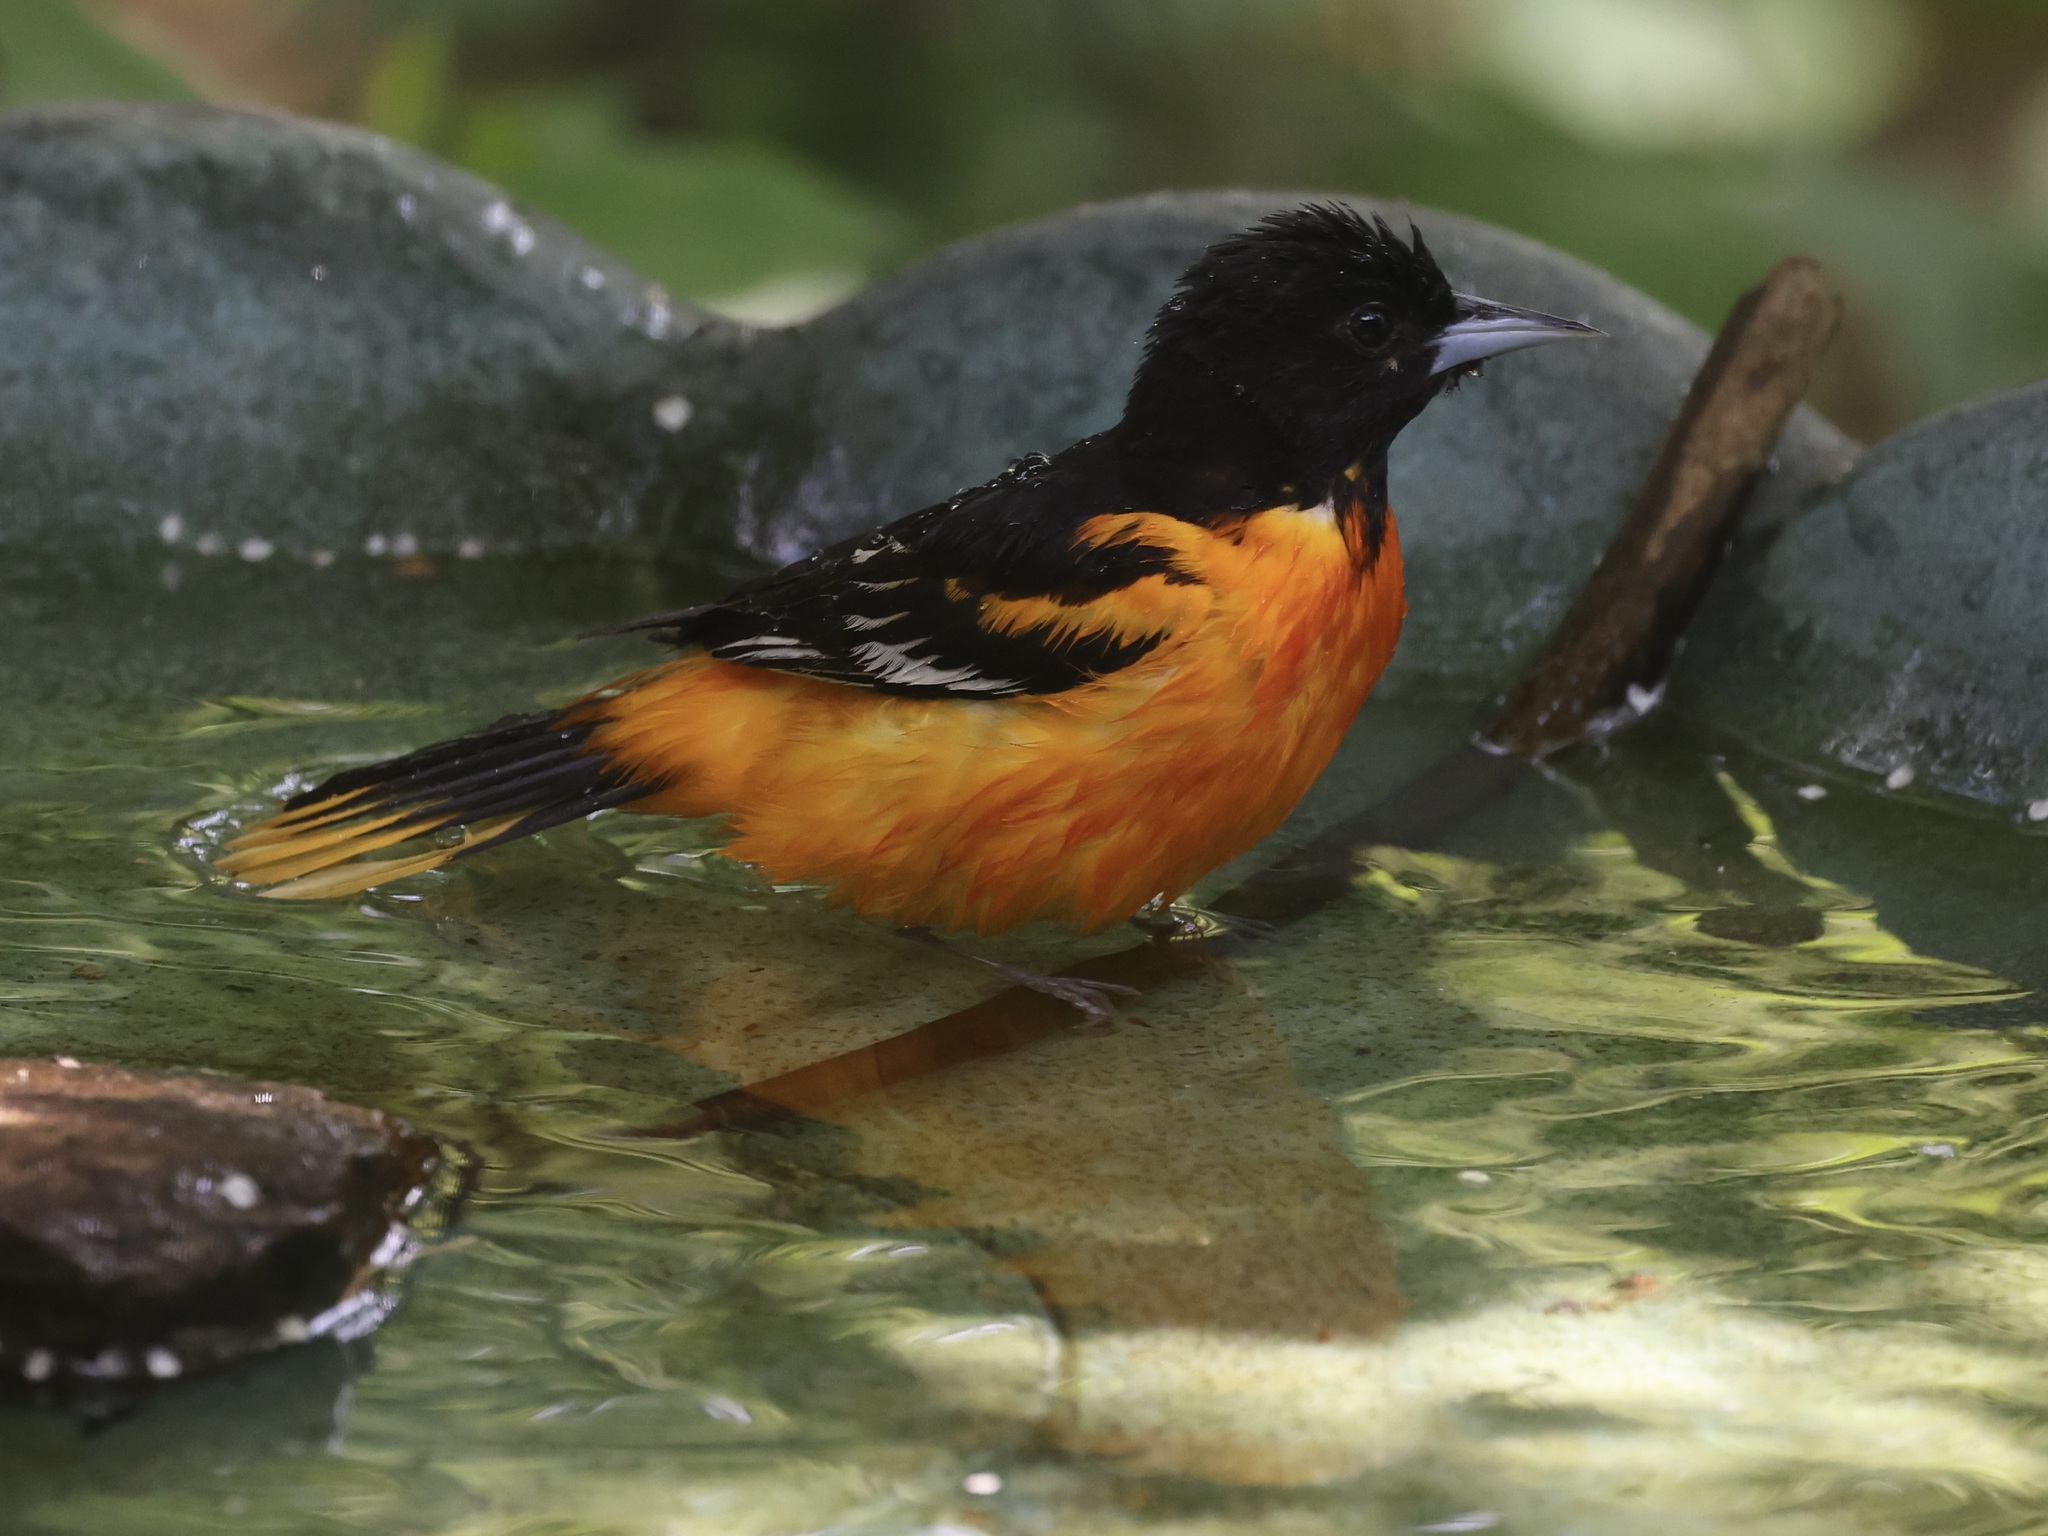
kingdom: Animalia
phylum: Chordata
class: Aves
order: Passeriformes
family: Icteridae
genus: Icterus
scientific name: Icterus galbula
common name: Baltimore oriole
